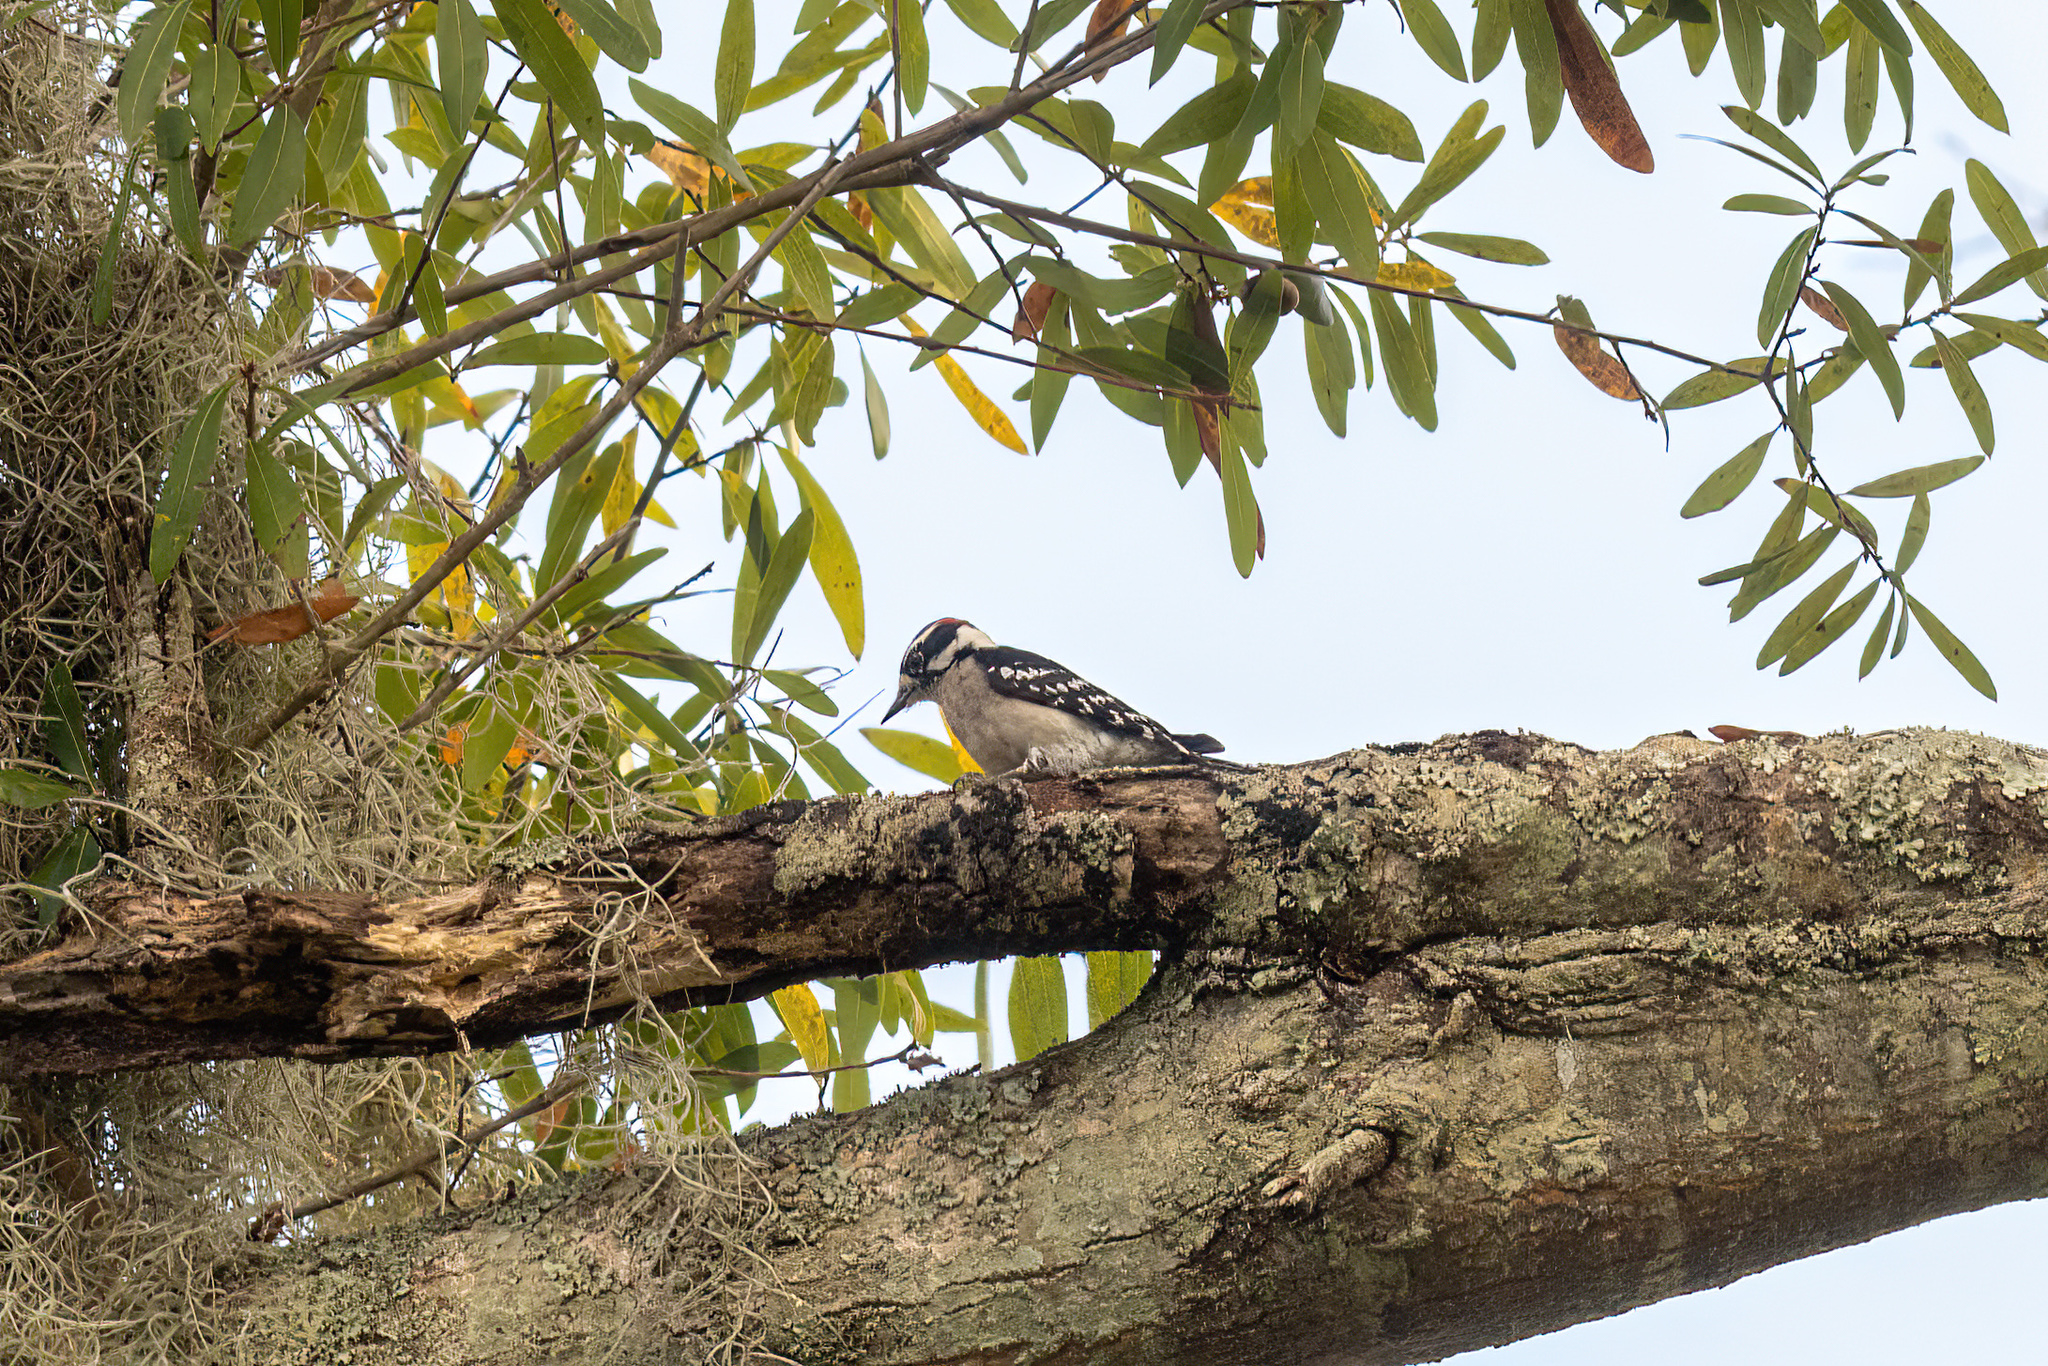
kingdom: Animalia
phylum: Chordata
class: Aves
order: Piciformes
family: Picidae
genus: Dryobates
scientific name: Dryobates pubescens
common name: Downy woodpecker
